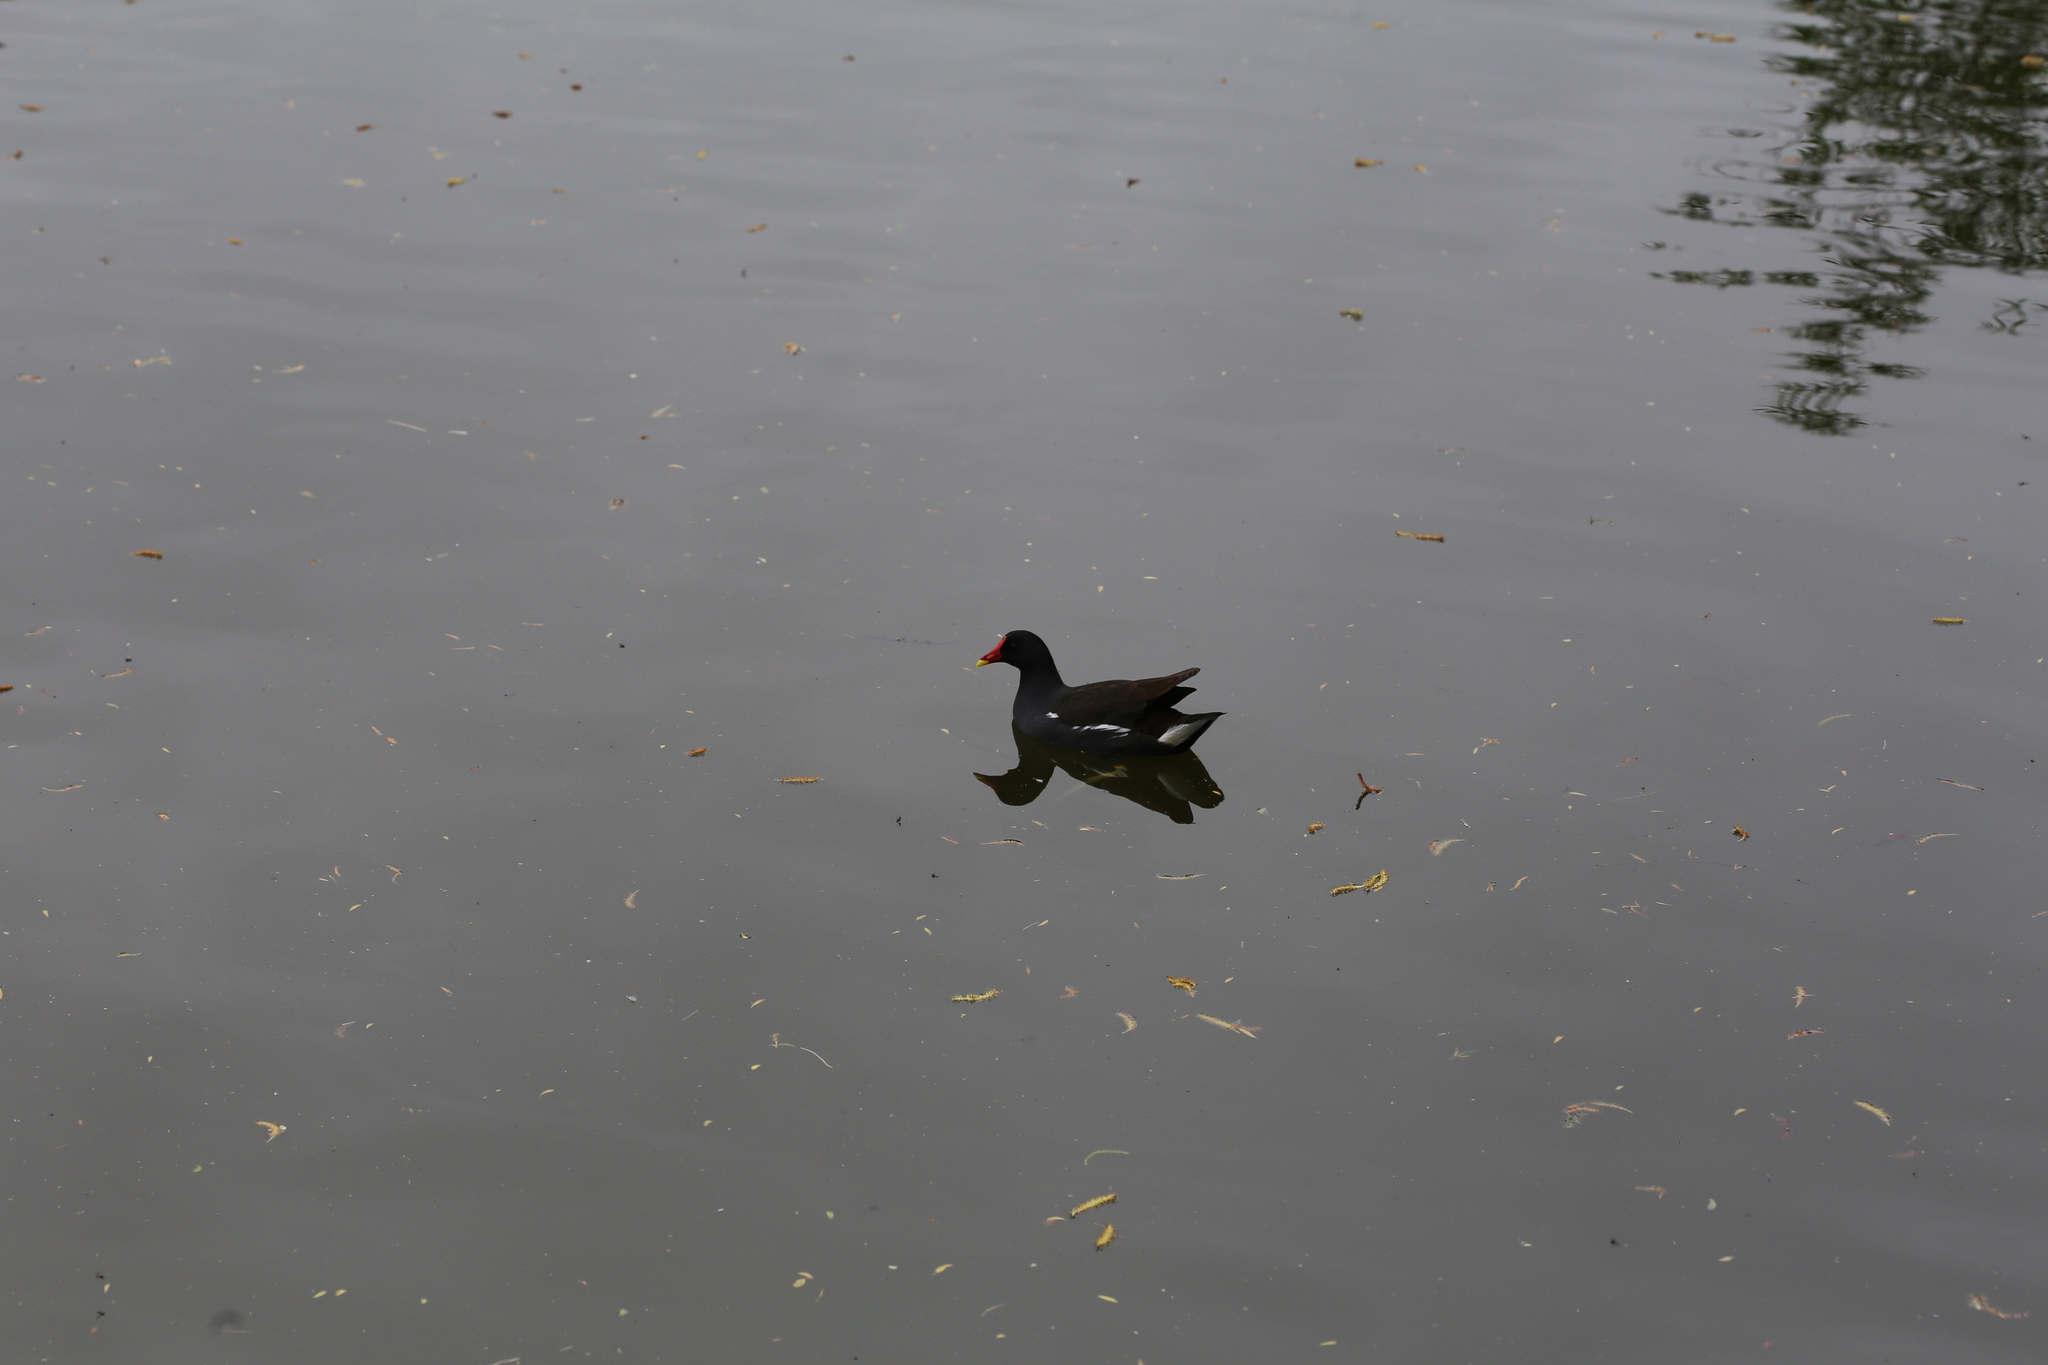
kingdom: Animalia
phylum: Chordata
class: Aves
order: Gruiformes
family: Rallidae
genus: Gallinula
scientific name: Gallinula chloropus
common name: Common moorhen
